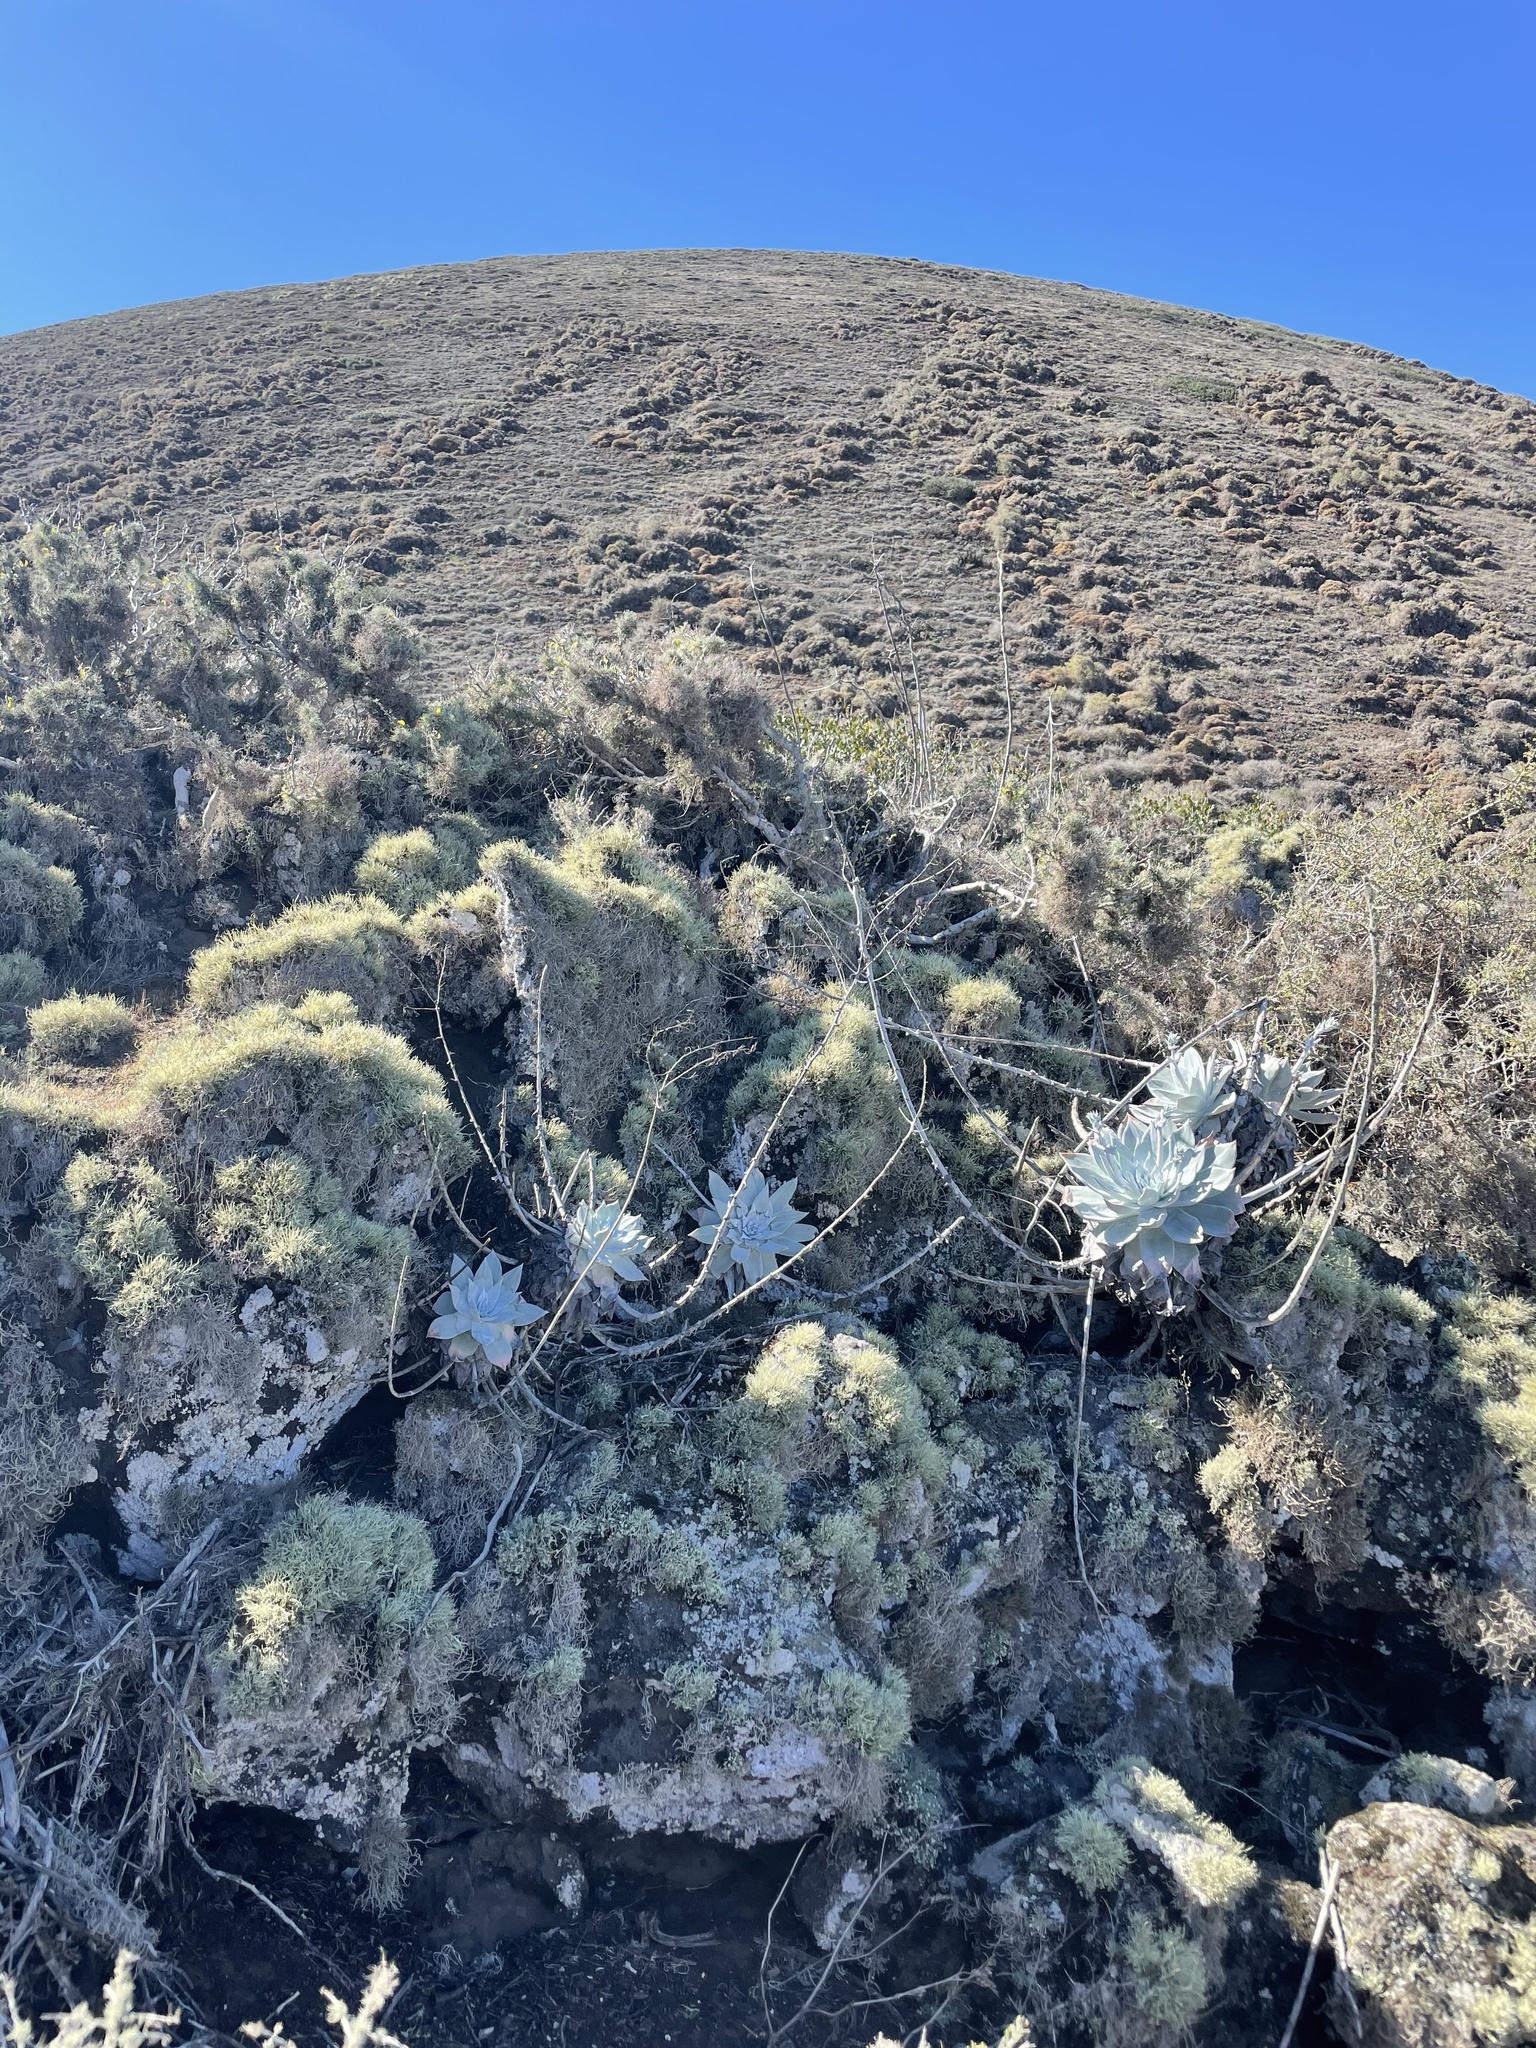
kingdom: Plantae
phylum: Tracheophyta
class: Magnoliopsida
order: Saxifragales
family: Crassulaceae
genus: Dudleya
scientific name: Dudleya anthonyi
